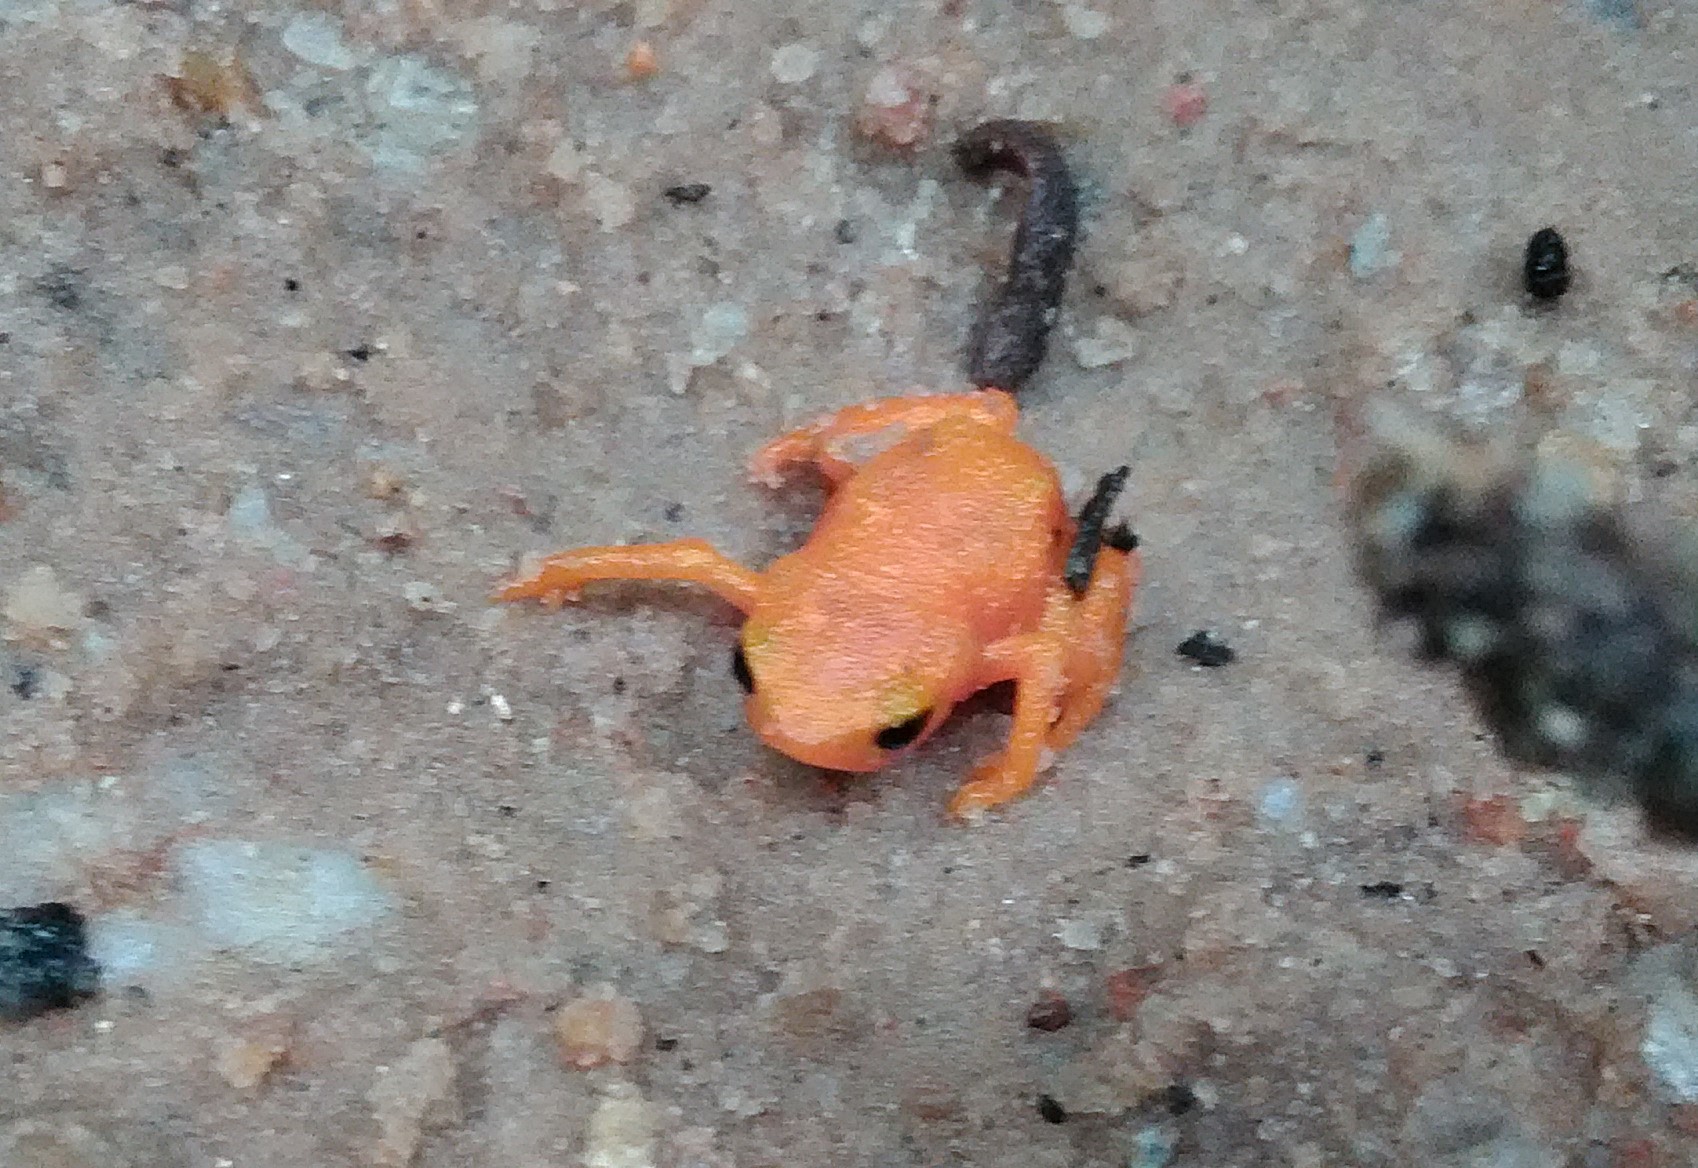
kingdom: Animalia
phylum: Chordata
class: Amphibia
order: Anura
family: Brachycephalidae
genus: Brachycephalus
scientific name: Brachycephalus ephippium
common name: Pumpkin toadlet
